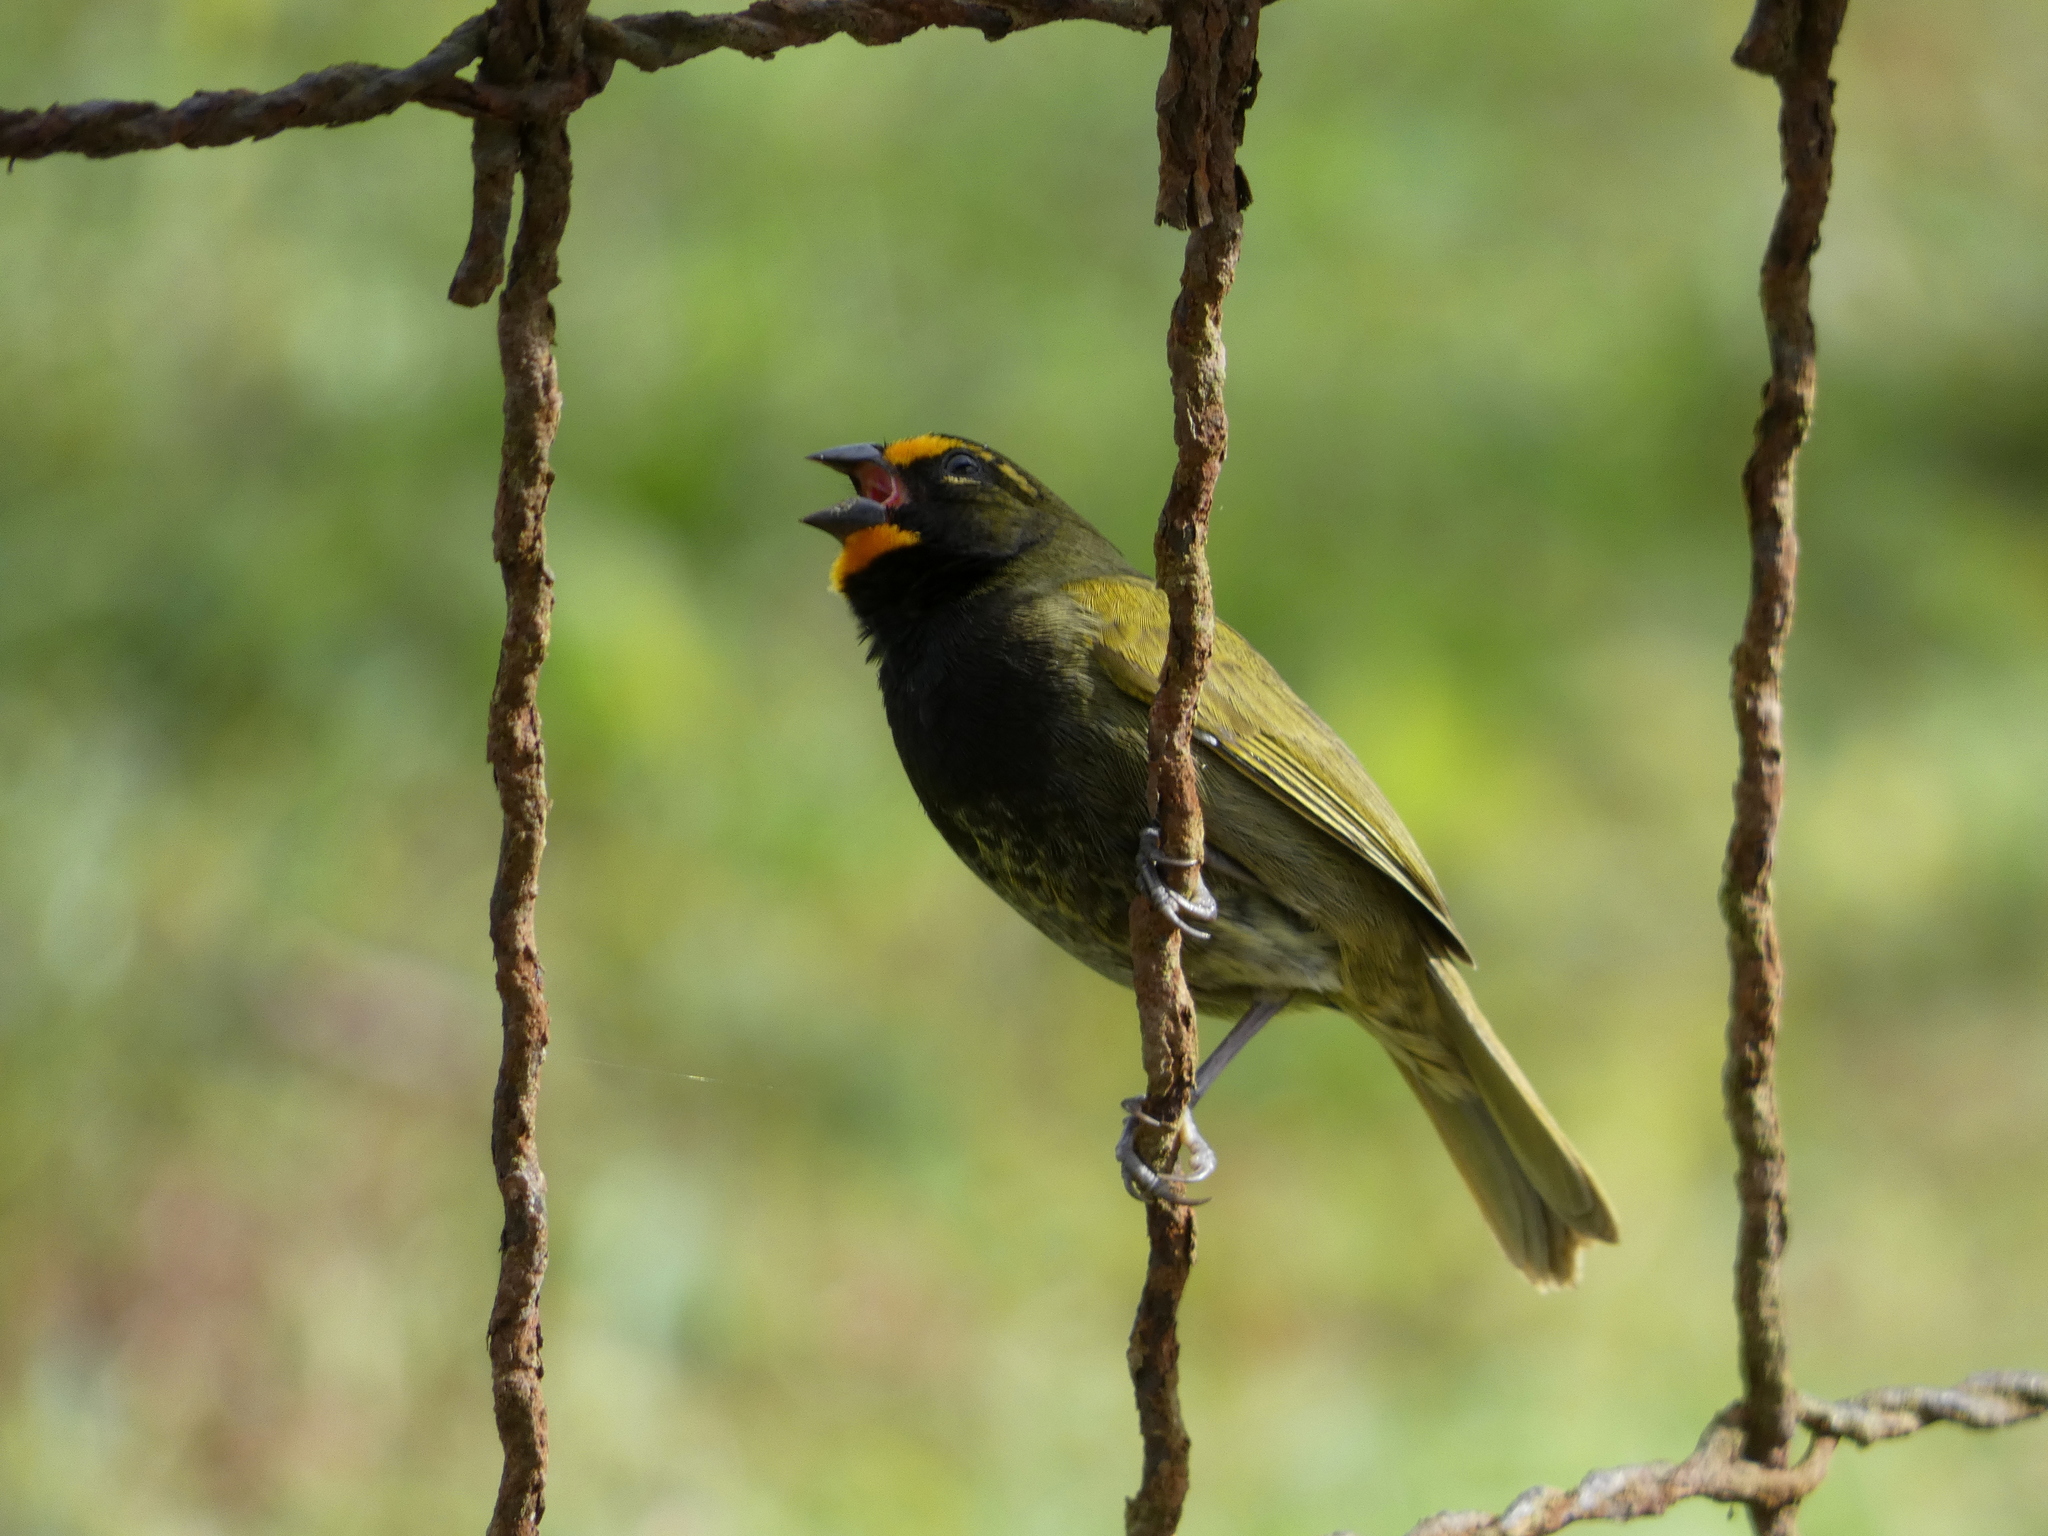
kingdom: Animalia
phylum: Chordata
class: Aves
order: Passeriformes
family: Thraupidae
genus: Tiaris
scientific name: Tiaris olivaceus
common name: Yellow-faced grassquit
